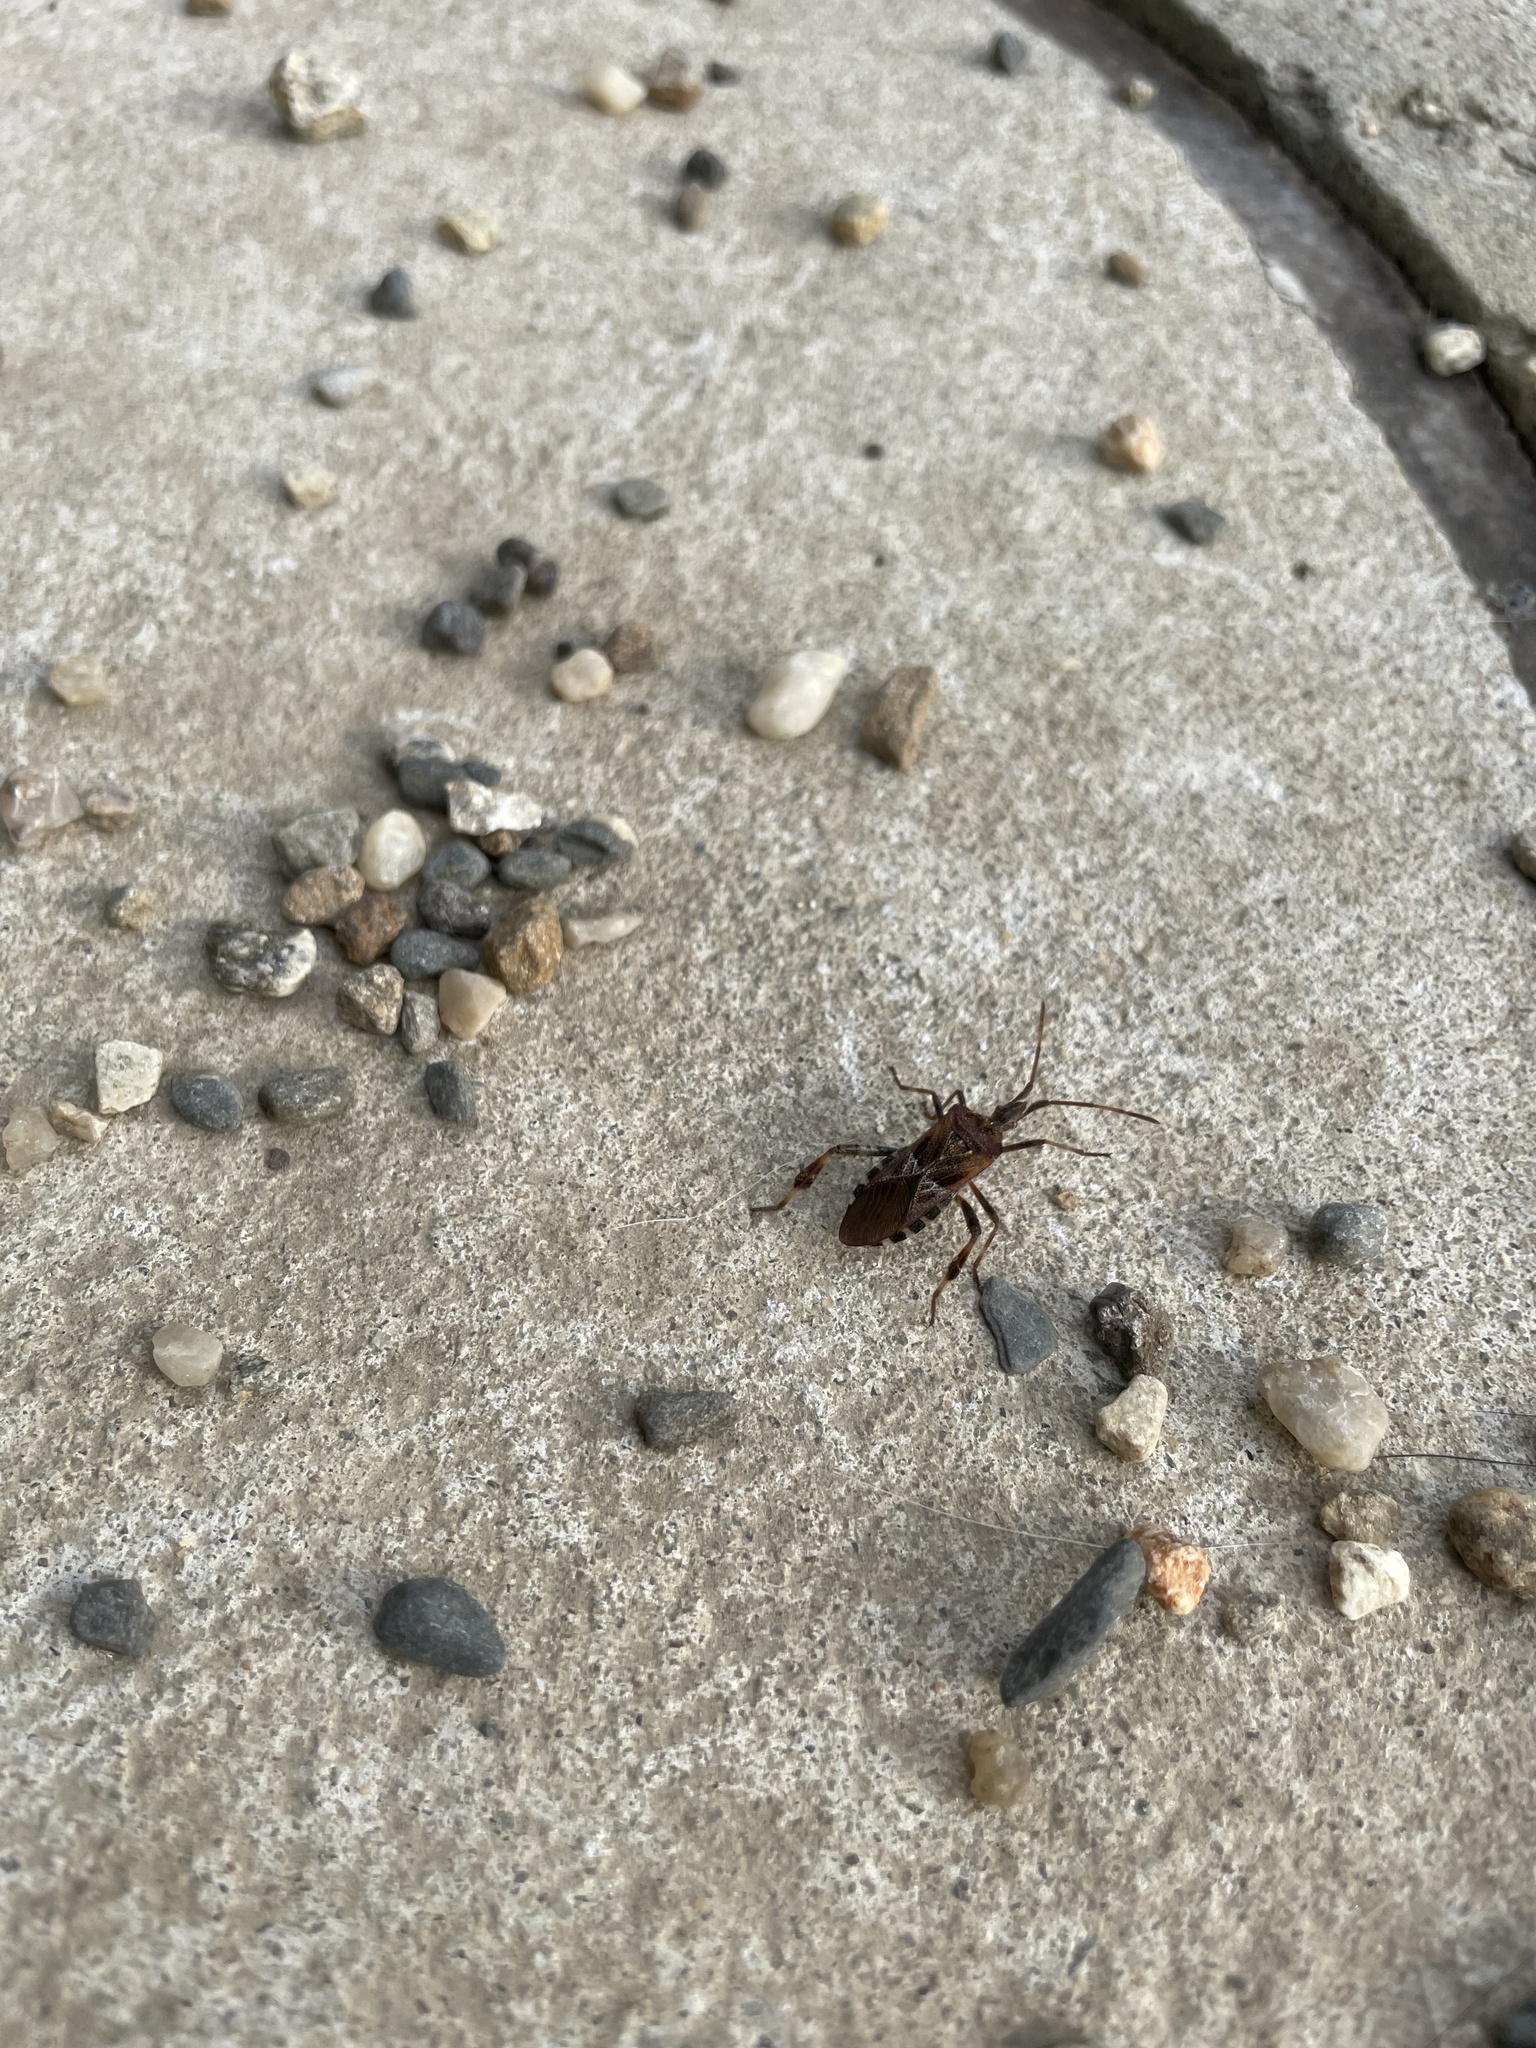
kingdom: Animalia
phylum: Arthropoda
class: Insecta
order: Hemiptera
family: Coreidae
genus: Leptoglossus
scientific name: Leptoglossus occidentalis
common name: Western conifer-seed bug
